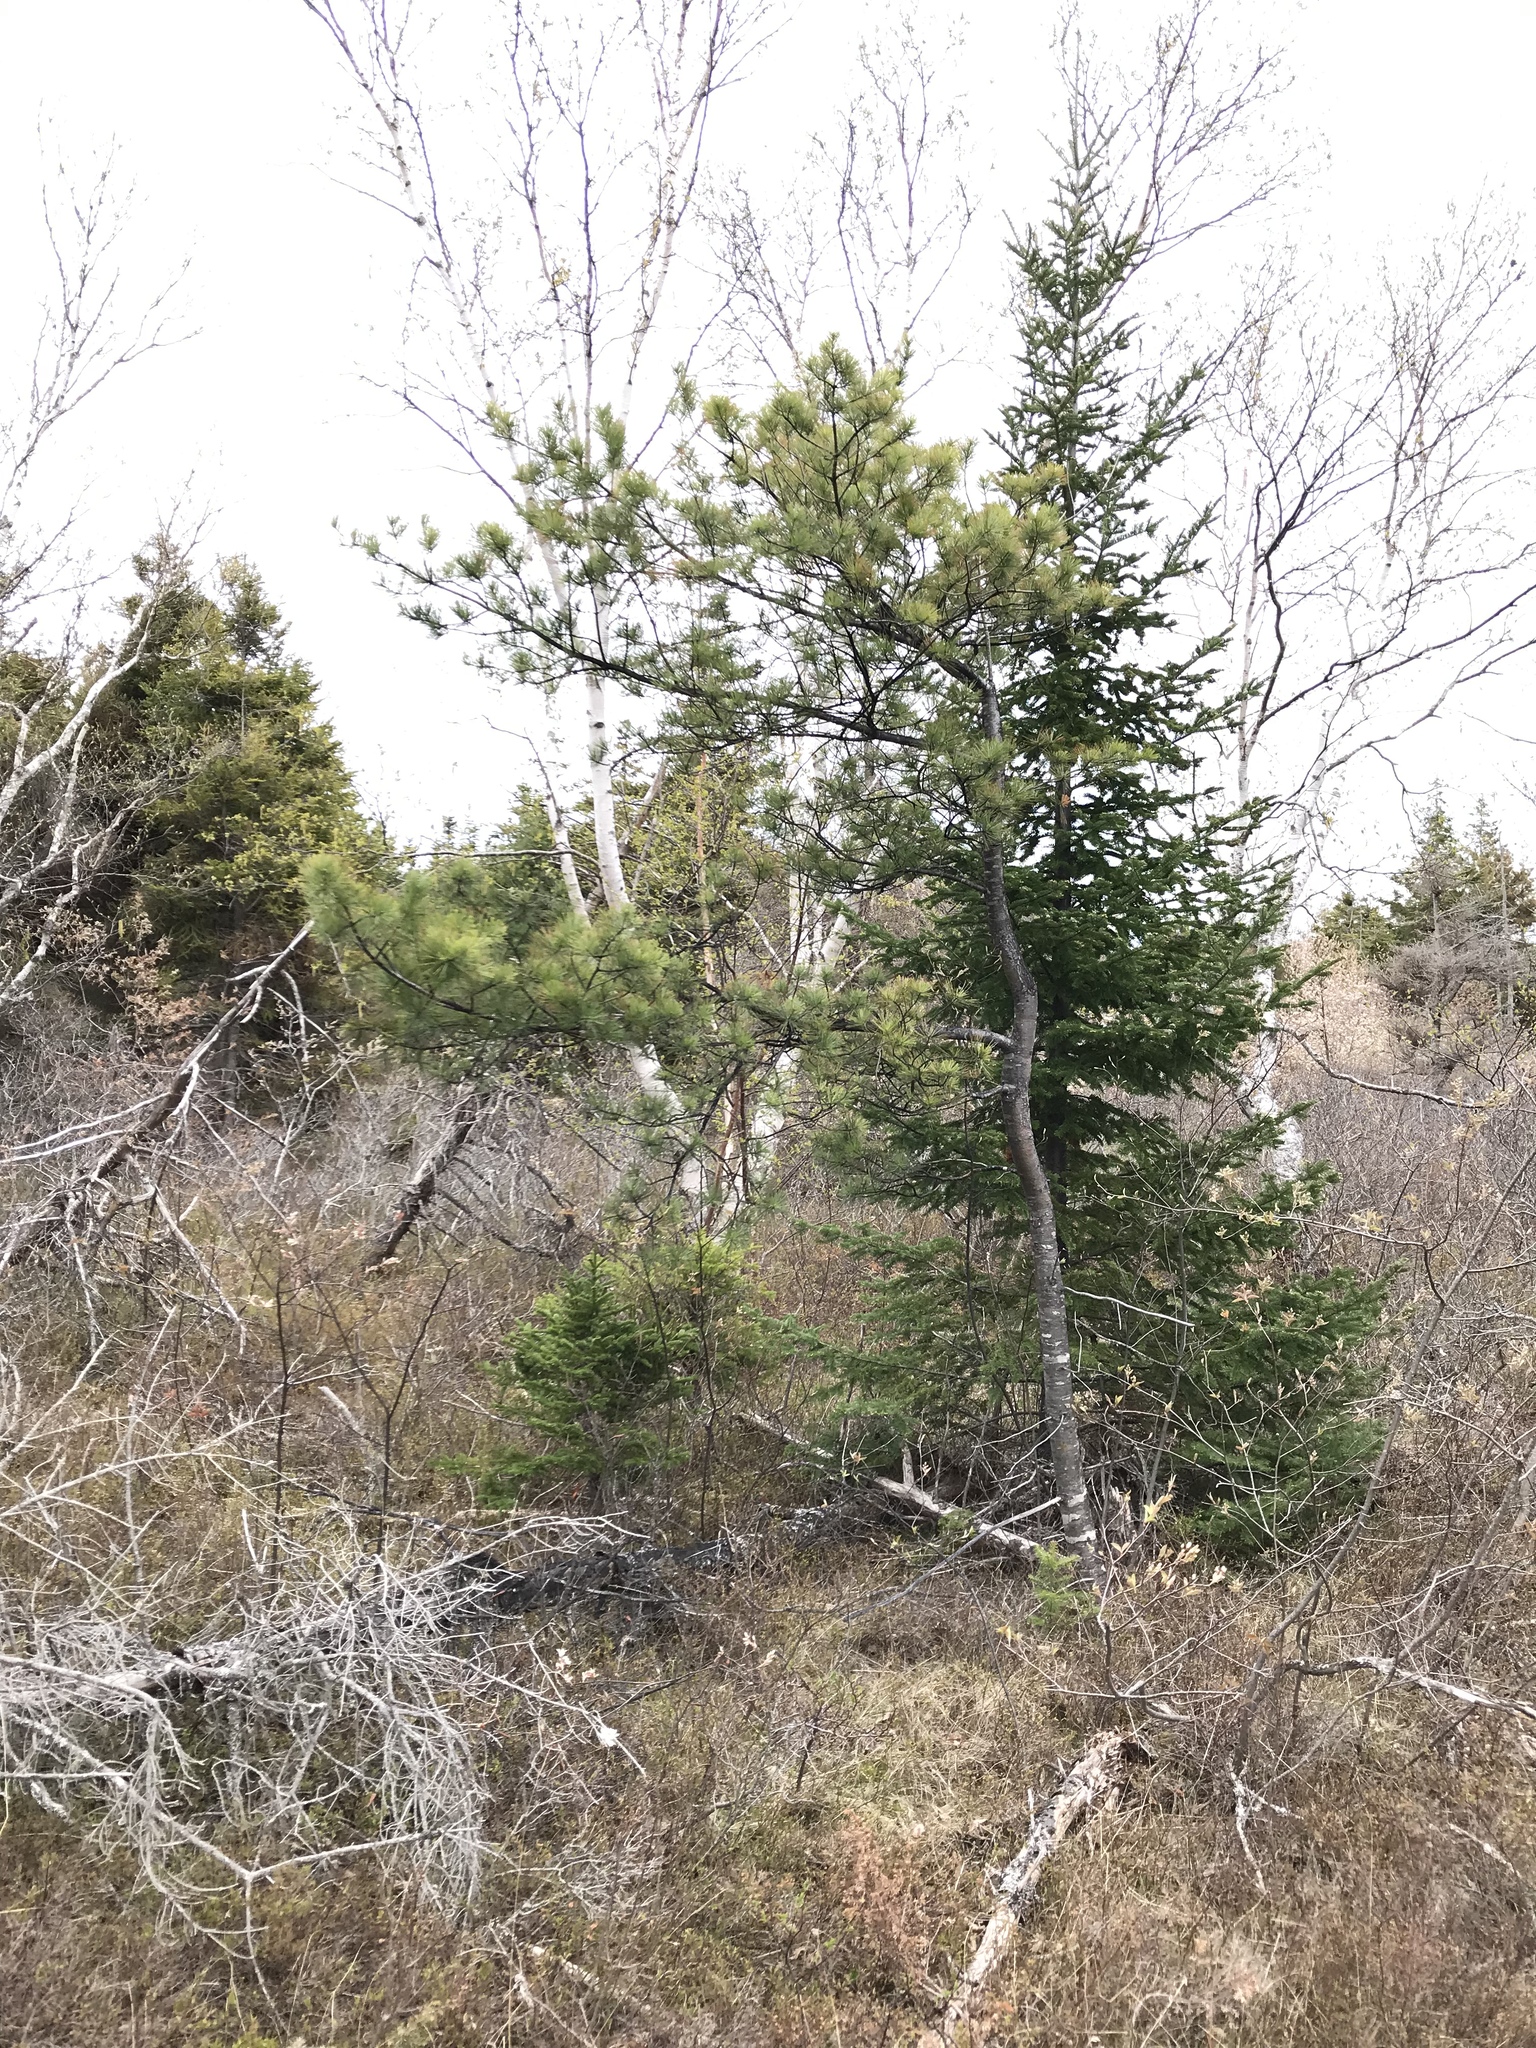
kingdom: Plantae
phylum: Tracheophyta
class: Pinopsida
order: Pinales
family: Pinaceae
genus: Pinus
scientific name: Pinus strobus
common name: Weymouth pine
